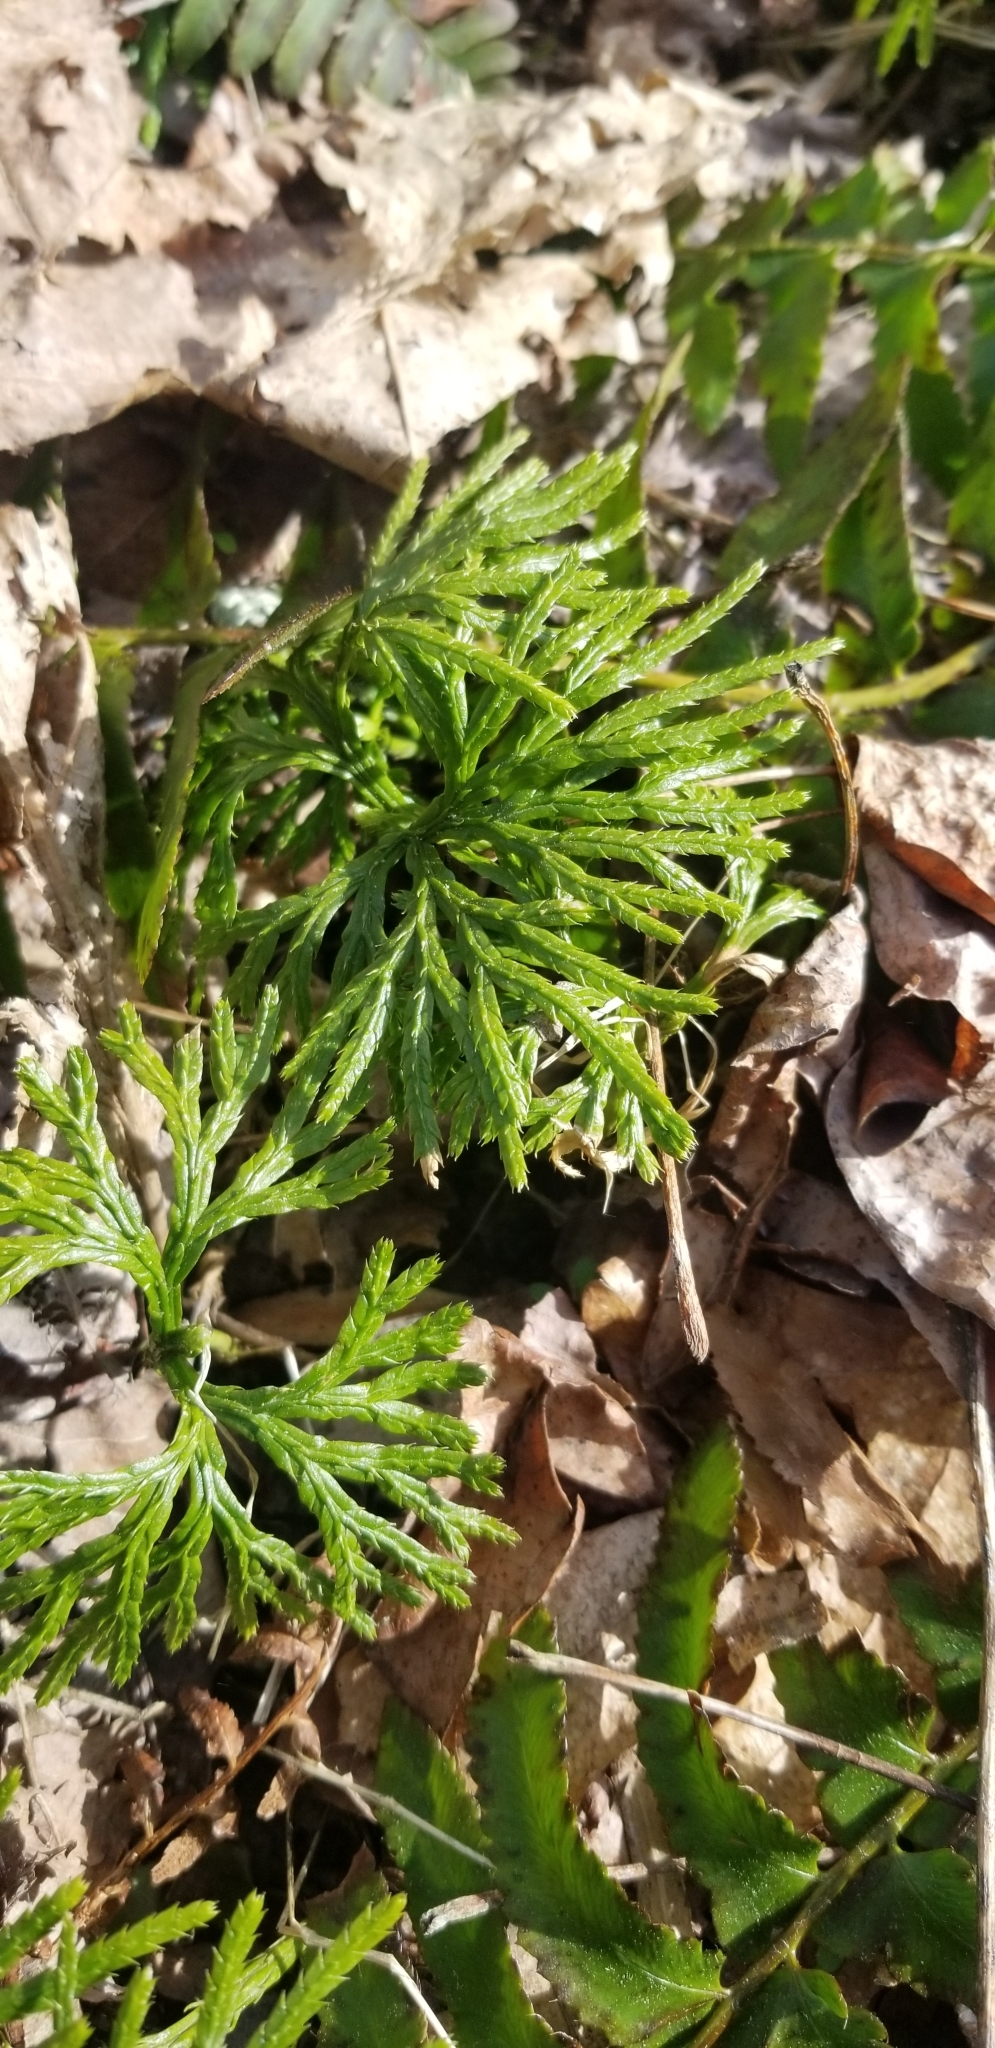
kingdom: Plantae
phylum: Tracheophyta
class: Lycopodiopsida
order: Lycopodiales
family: Lycopodiaceae
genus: Diphasiastrum
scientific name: Diphasiastrum digitatum
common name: Southern running-pine
